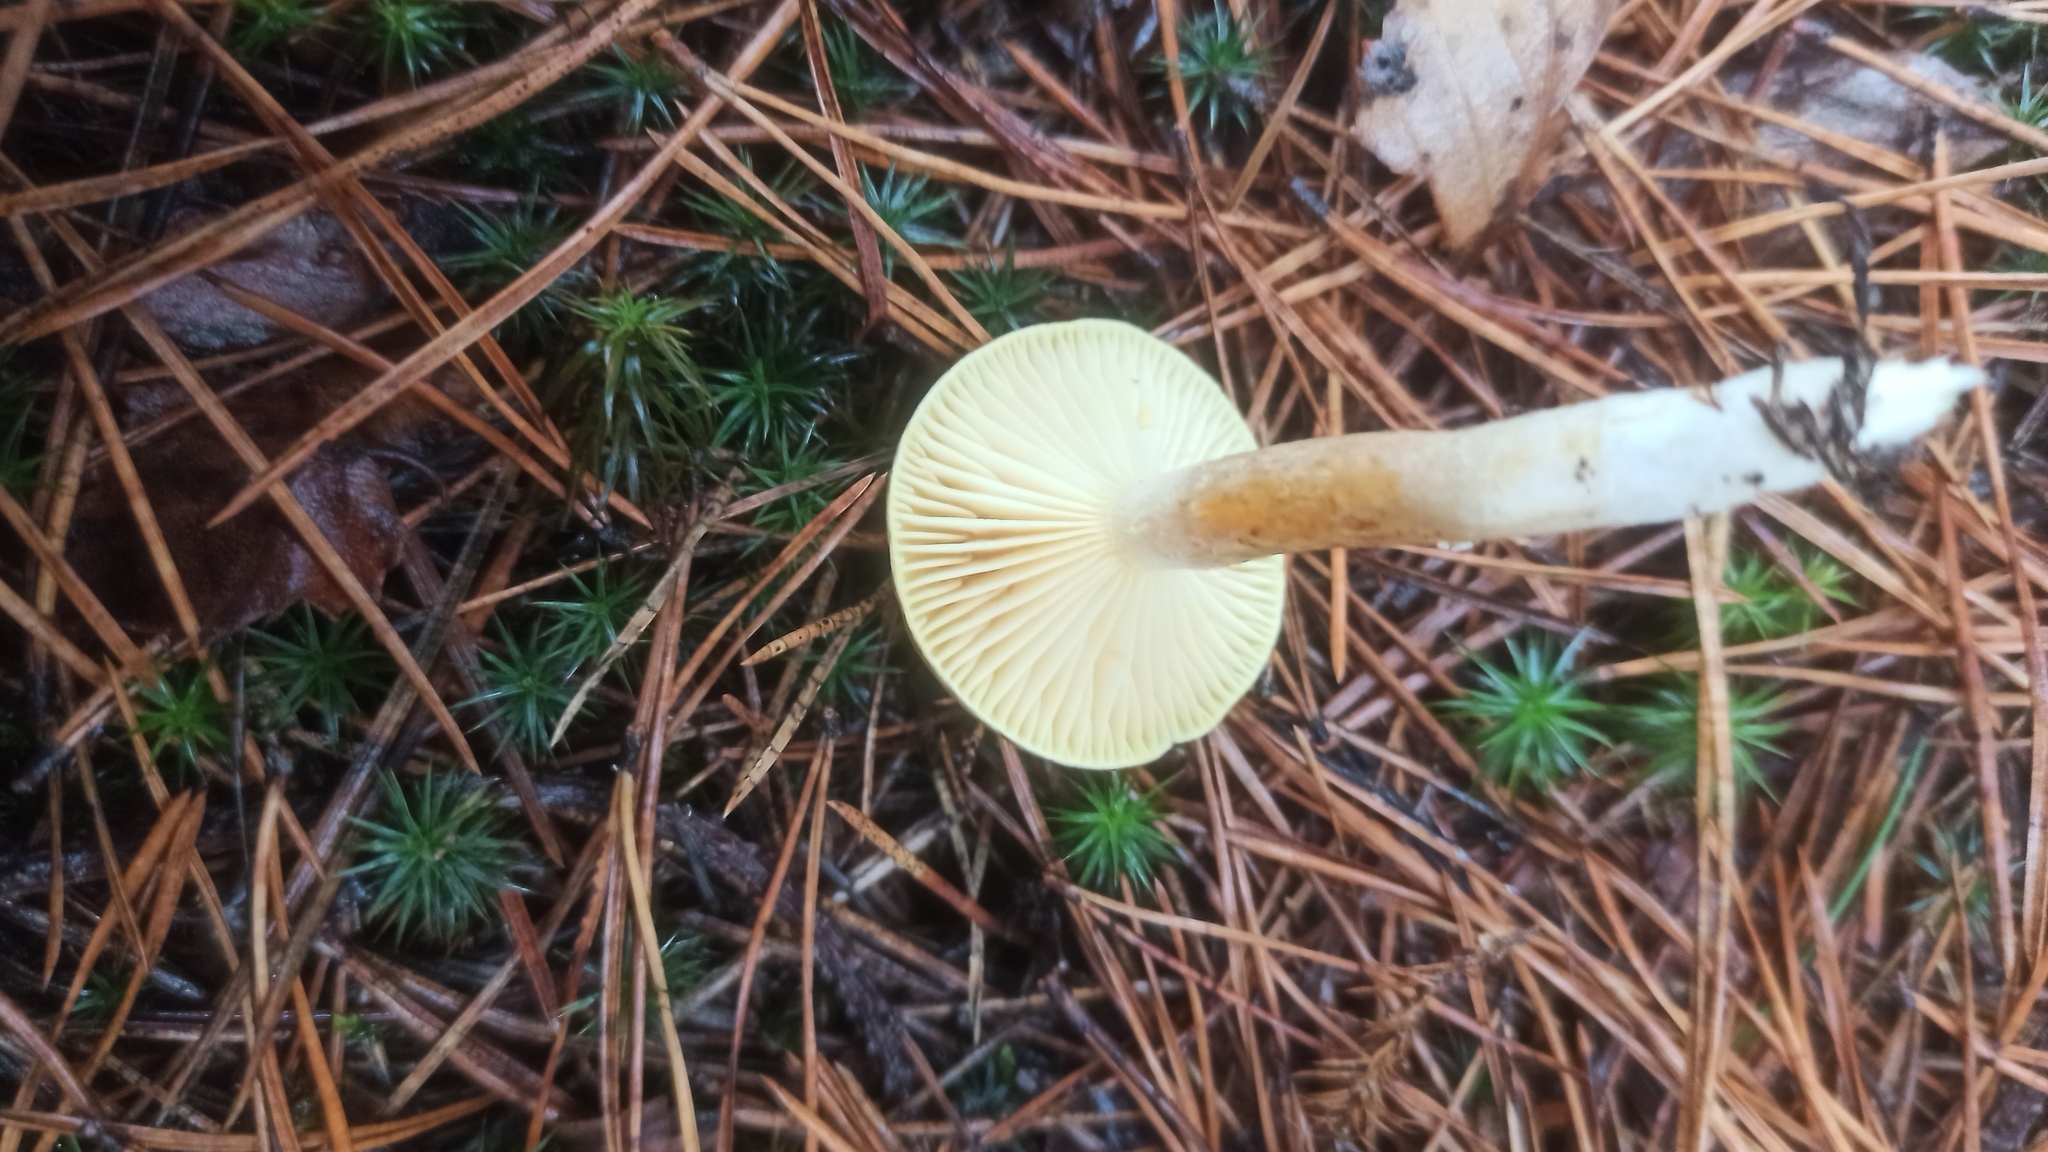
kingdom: Fungi
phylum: Basidiomycota
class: Agaricomycetes
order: Agaricales
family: Hygrophoraceae
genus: Hygrophorus
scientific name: Hygrophorus hypothejus
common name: Herald of winter
